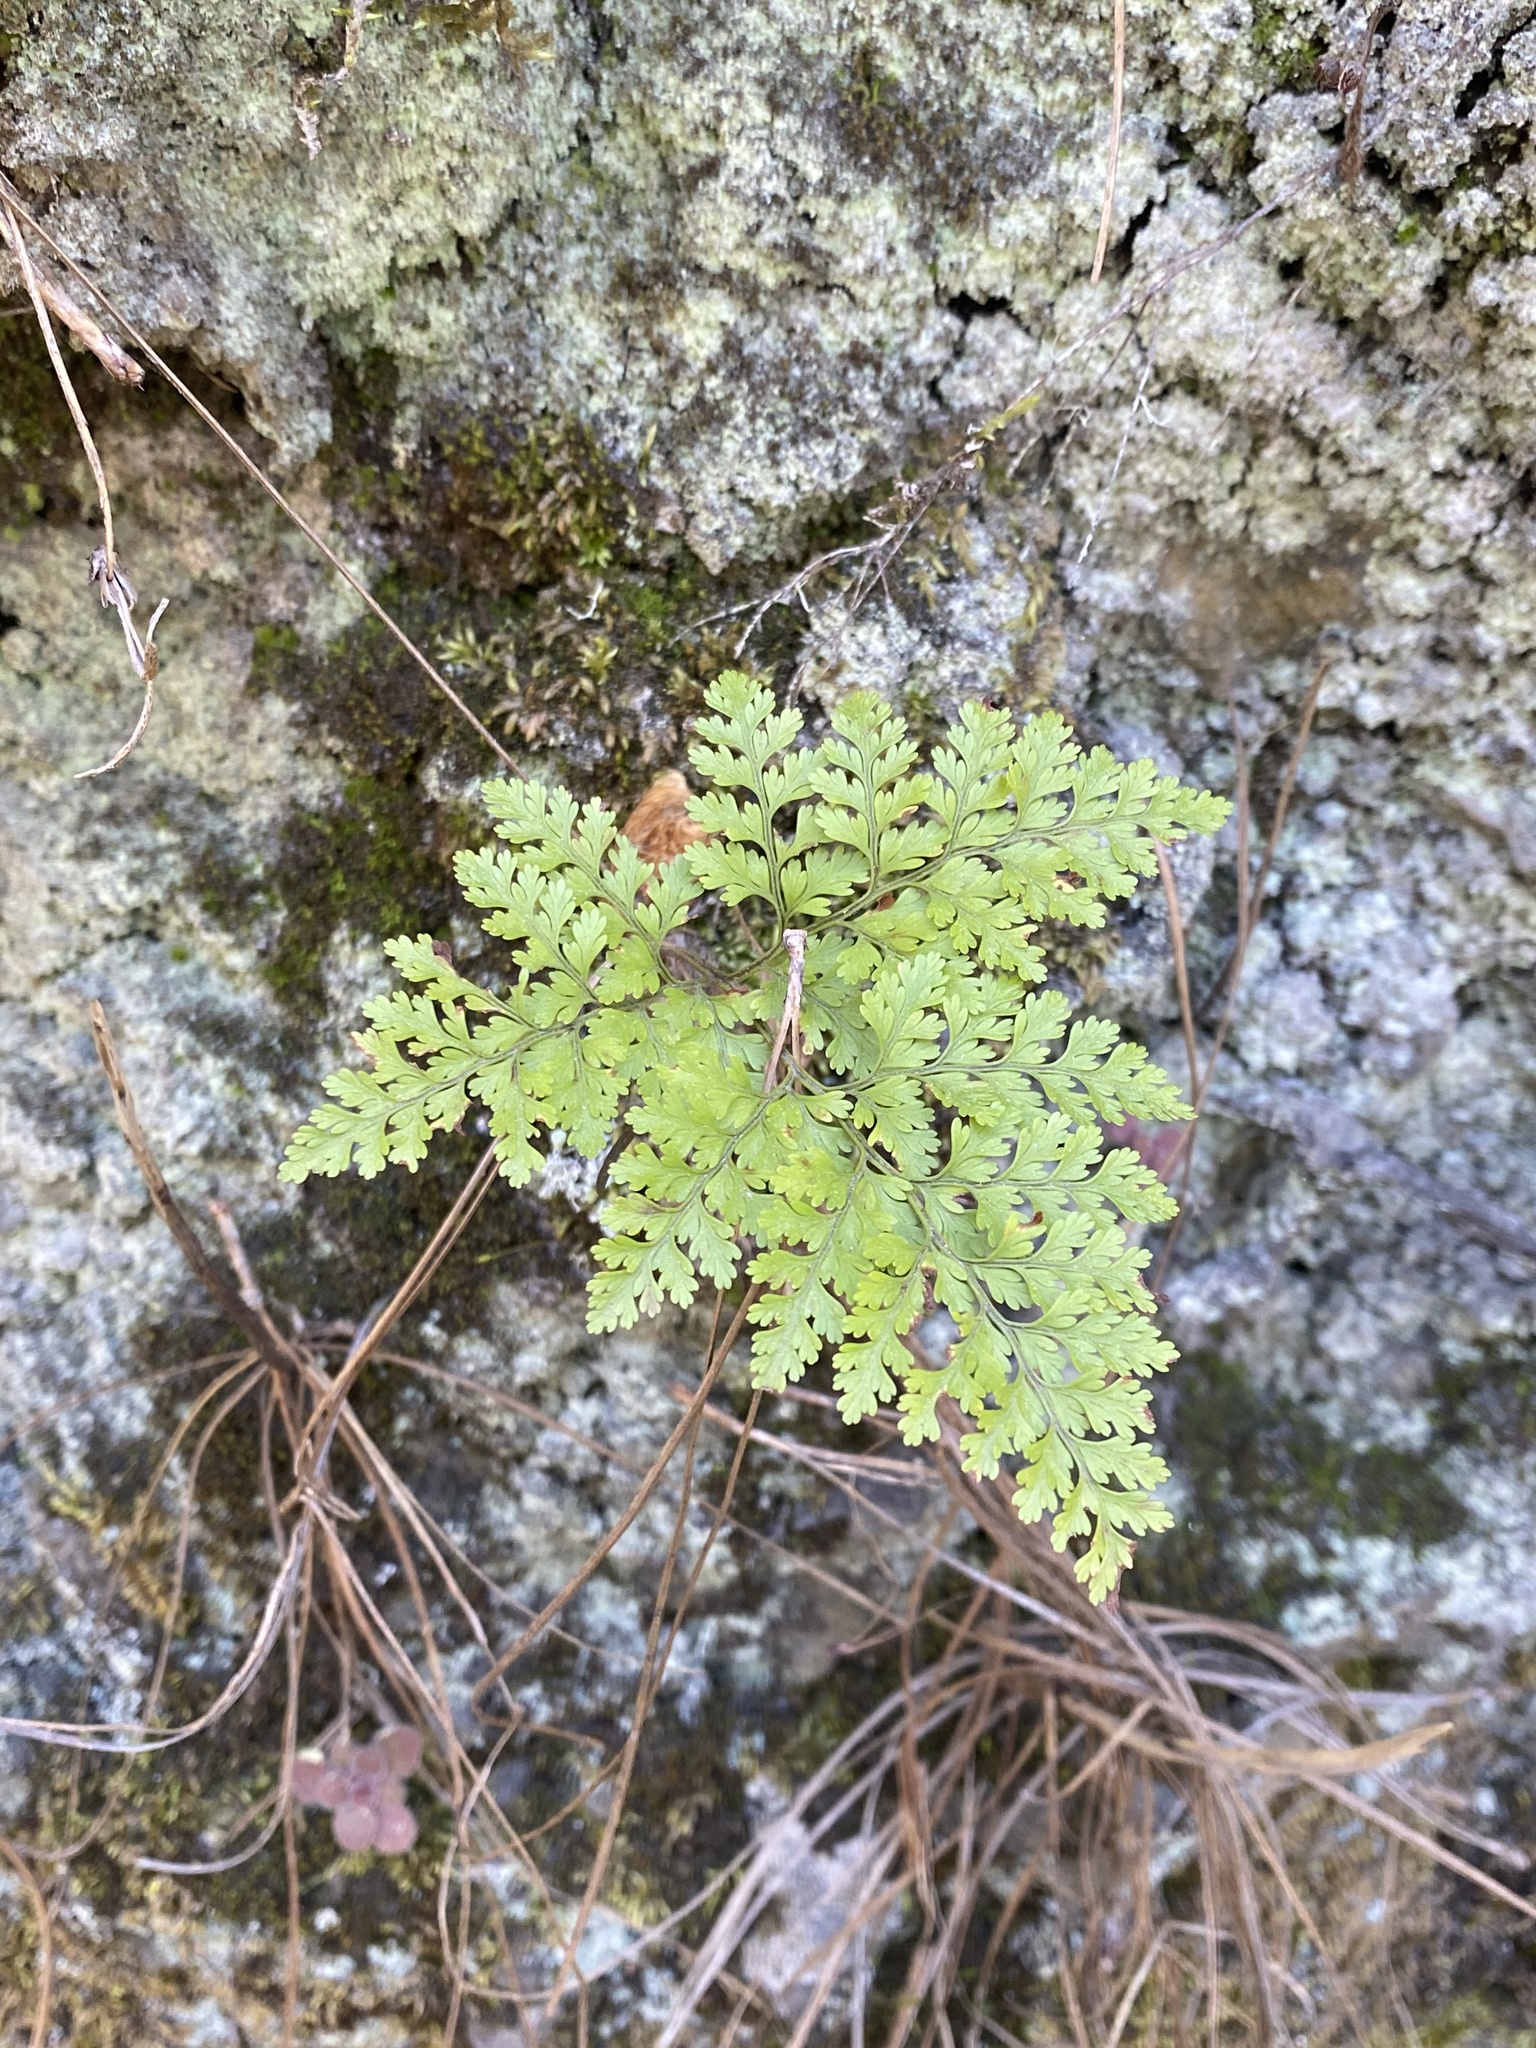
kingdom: Plantae
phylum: Tracheophyta
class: Polypodiopsida
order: Polypodiales
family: Davalliaceae
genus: Davallia
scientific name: Davallia canariensis
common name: Hare's-foot fern
